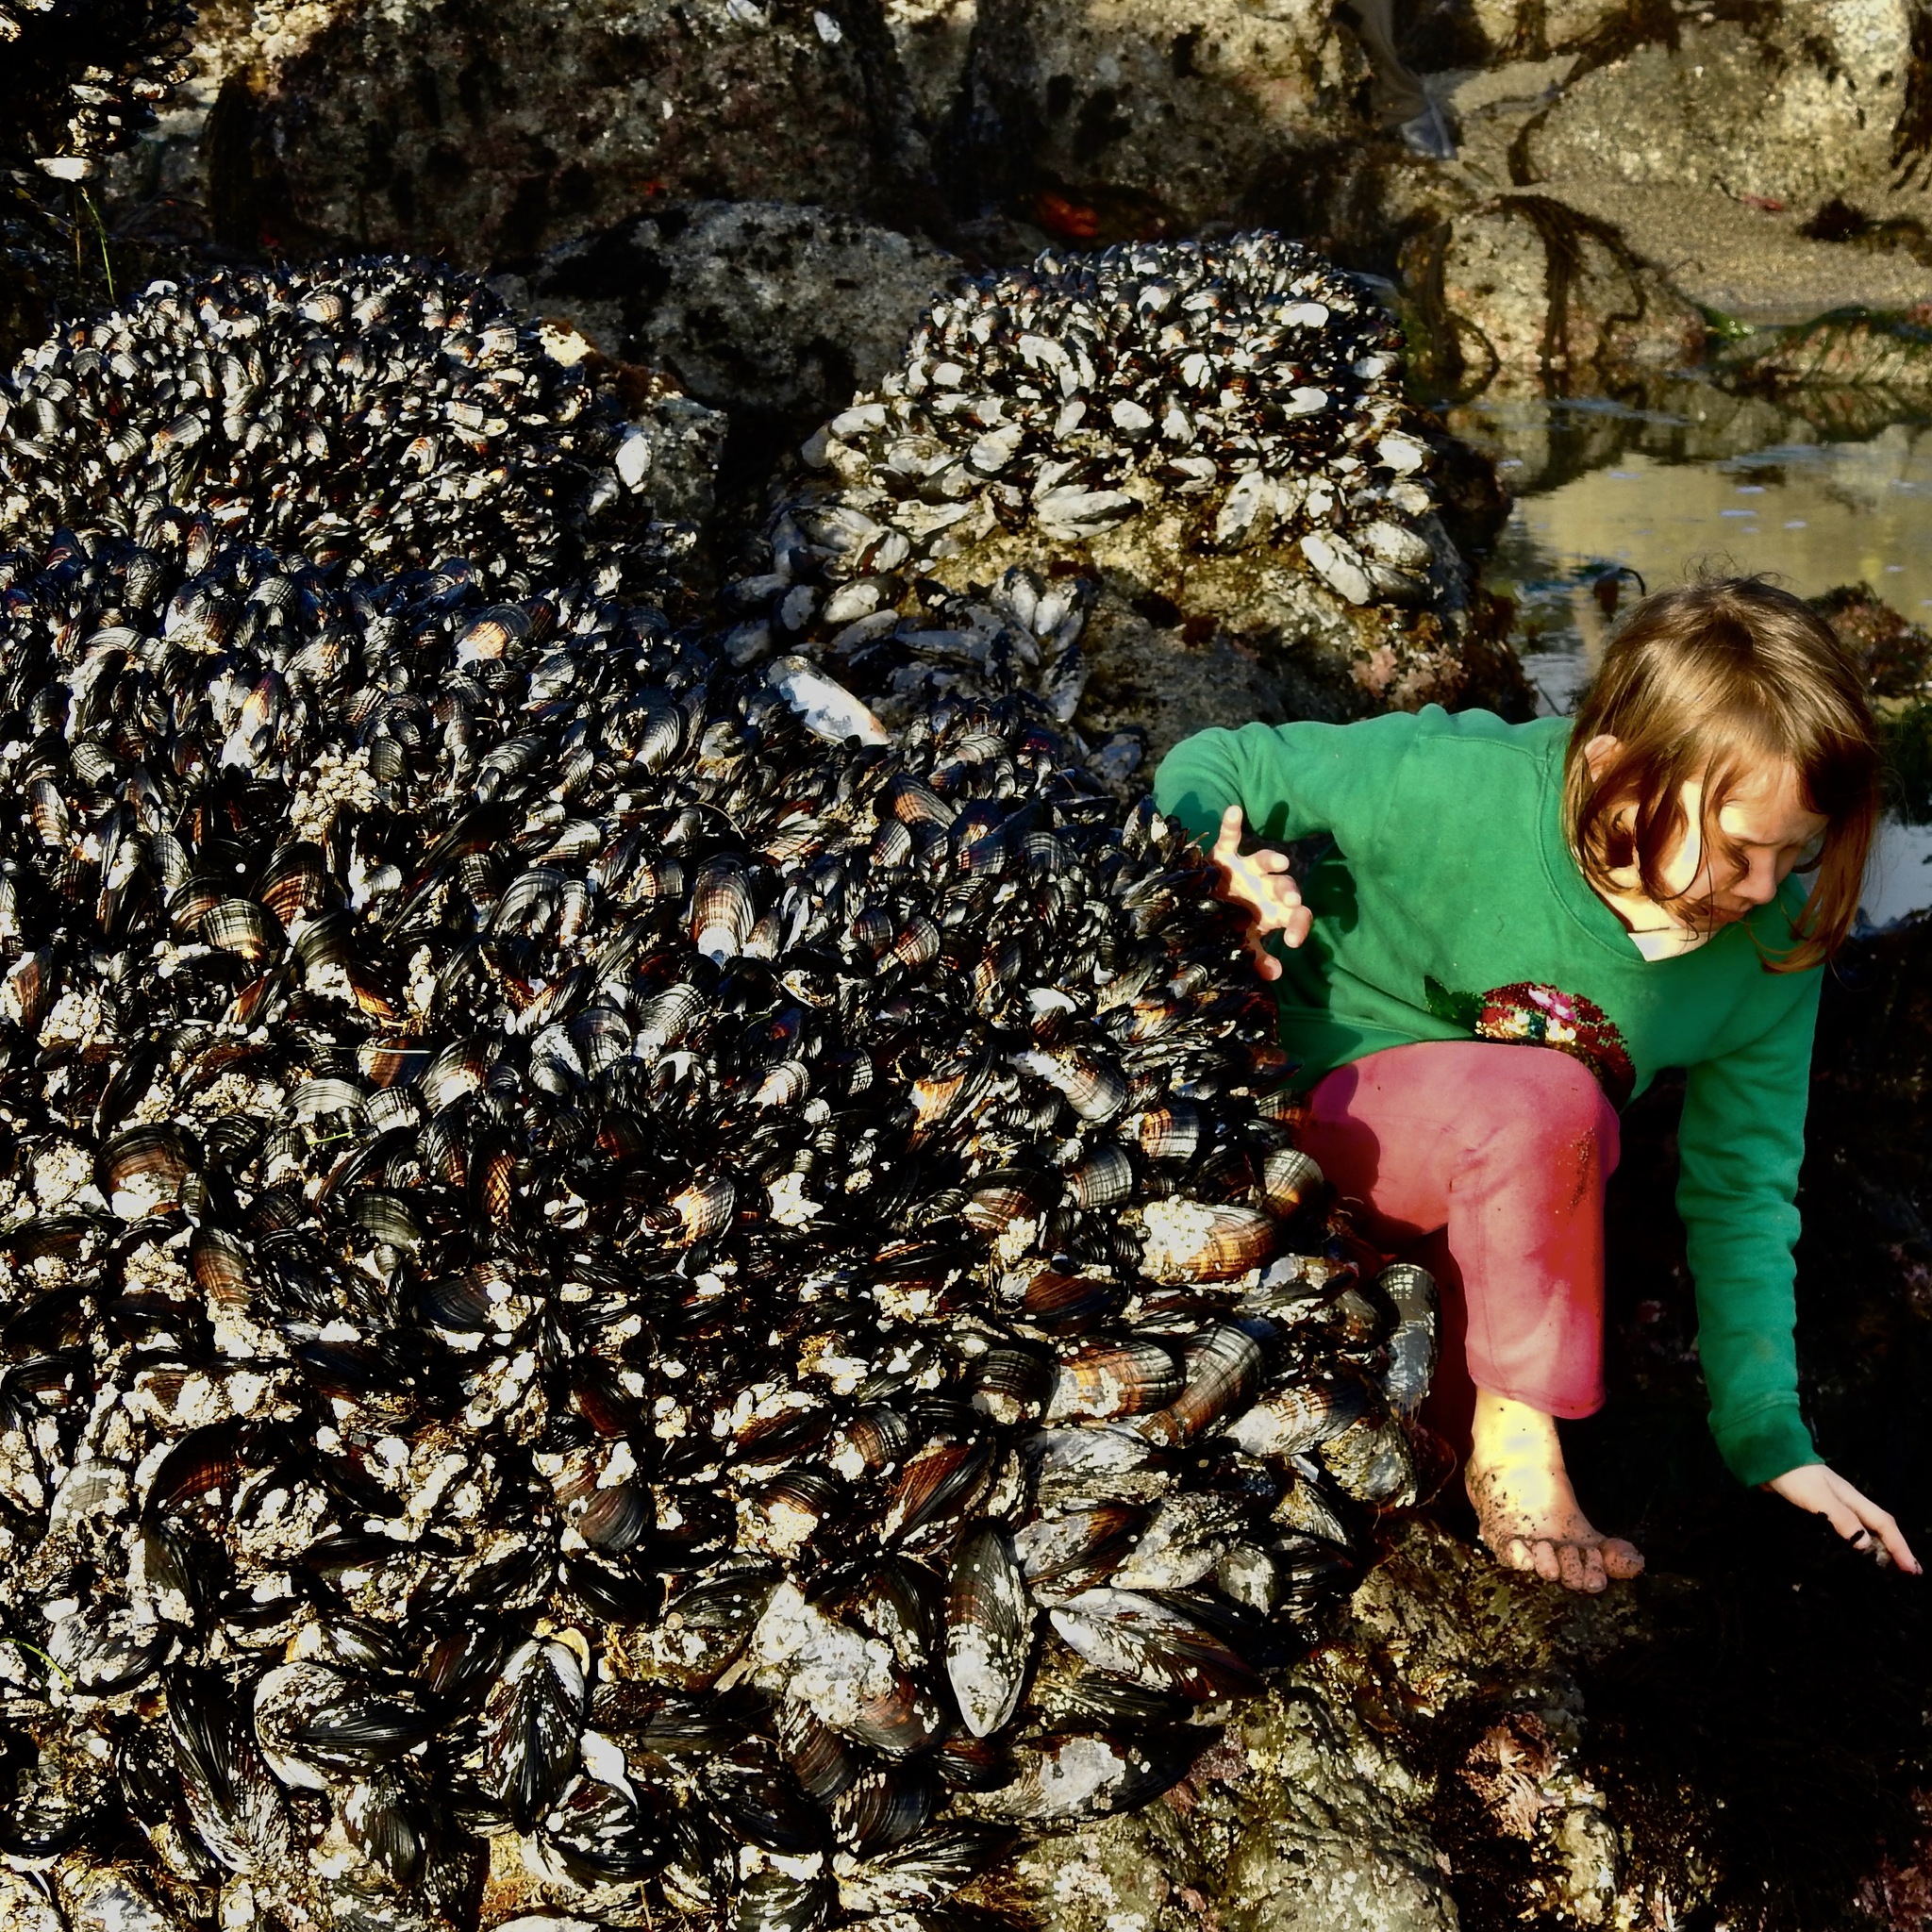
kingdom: Animalia
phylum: Mollusca
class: Bivalvia
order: Mytilida
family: Mytilidae
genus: Mytilus
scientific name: Mytilus californianus
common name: California mussel
